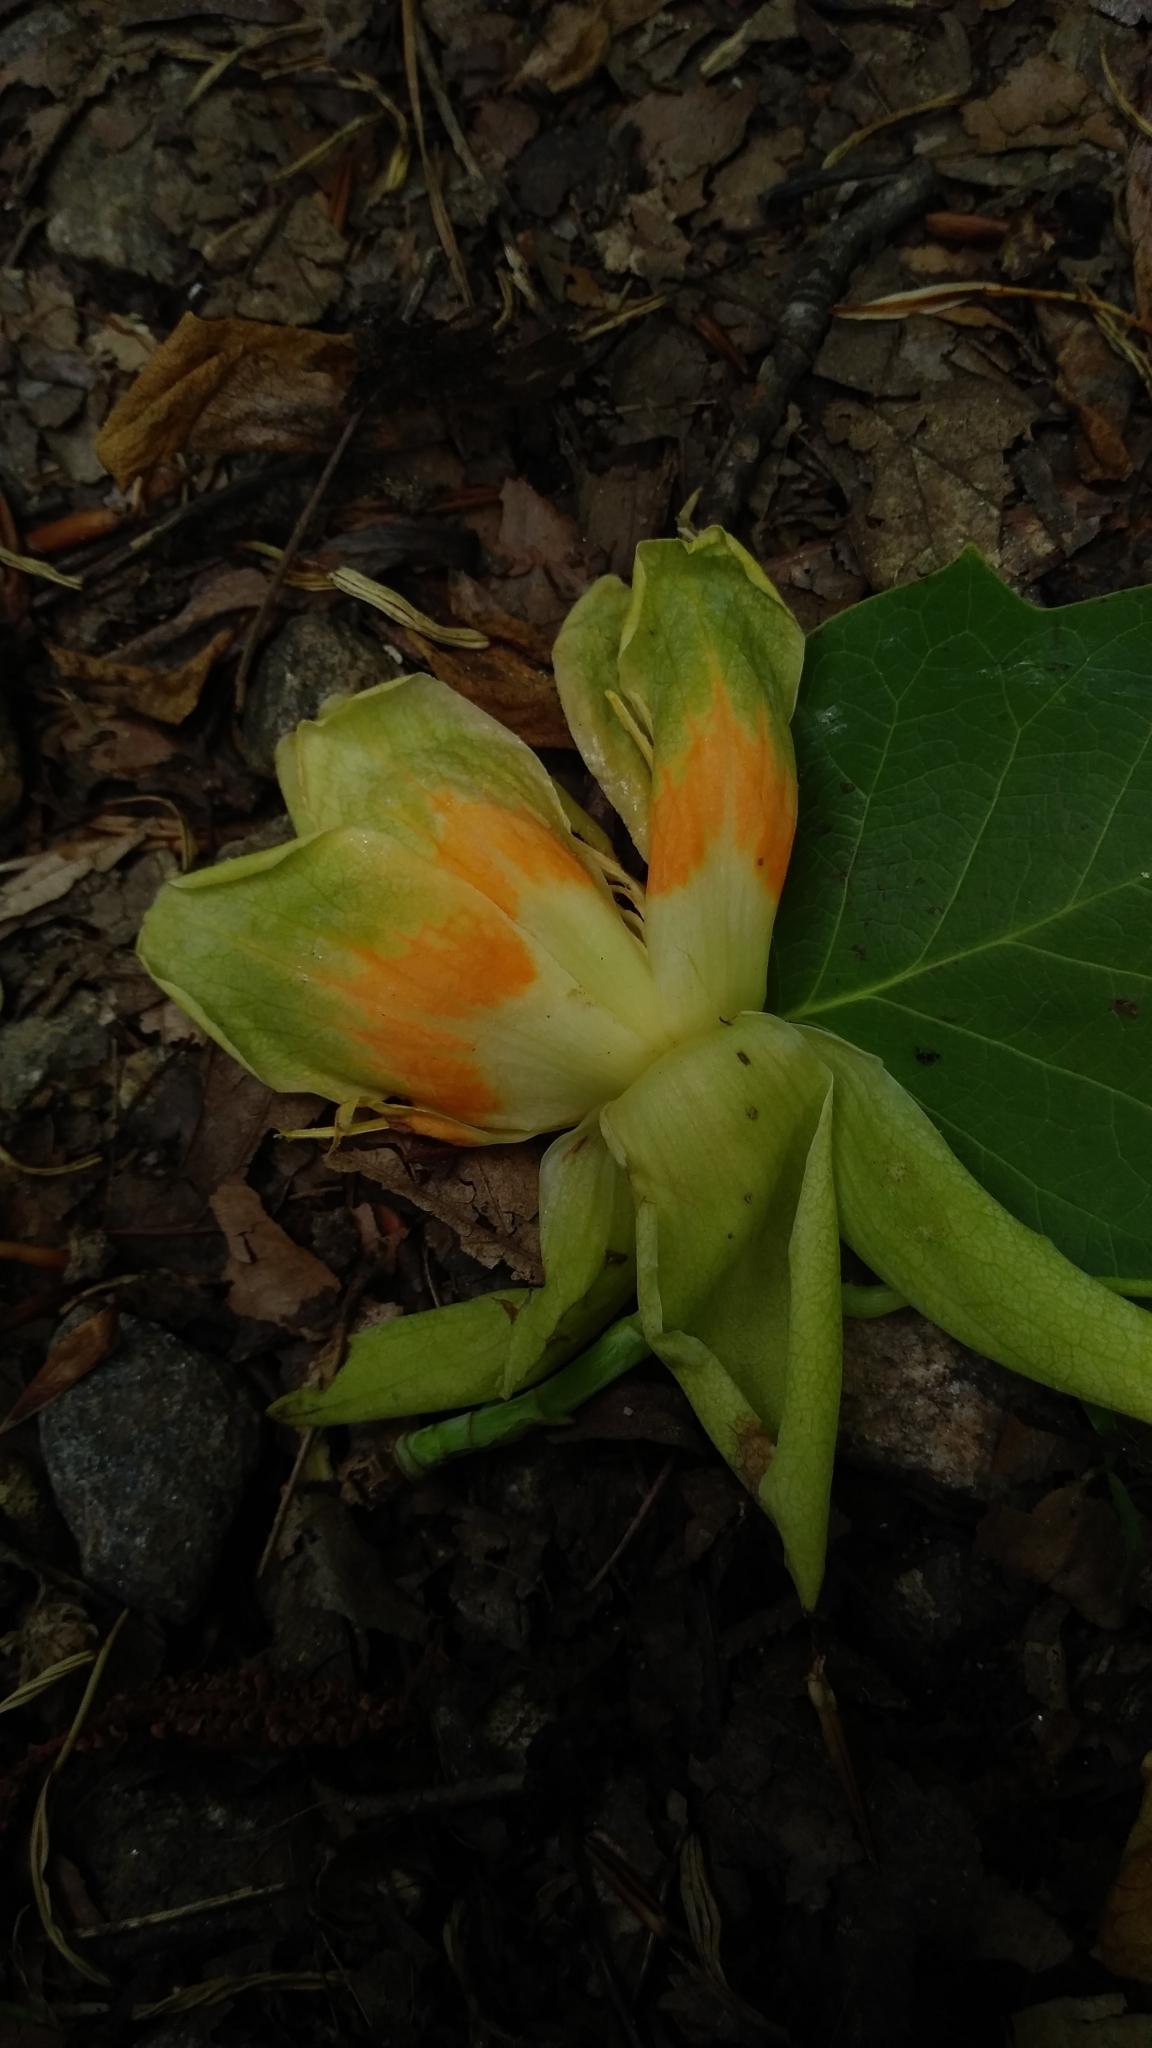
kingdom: Plantae
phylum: Tracheophyta
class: Magnoliopsida
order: Magnoliales
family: Magnoliaceae
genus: Liriodendron
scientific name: Liriodendron tulipifera
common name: Tulip tree
